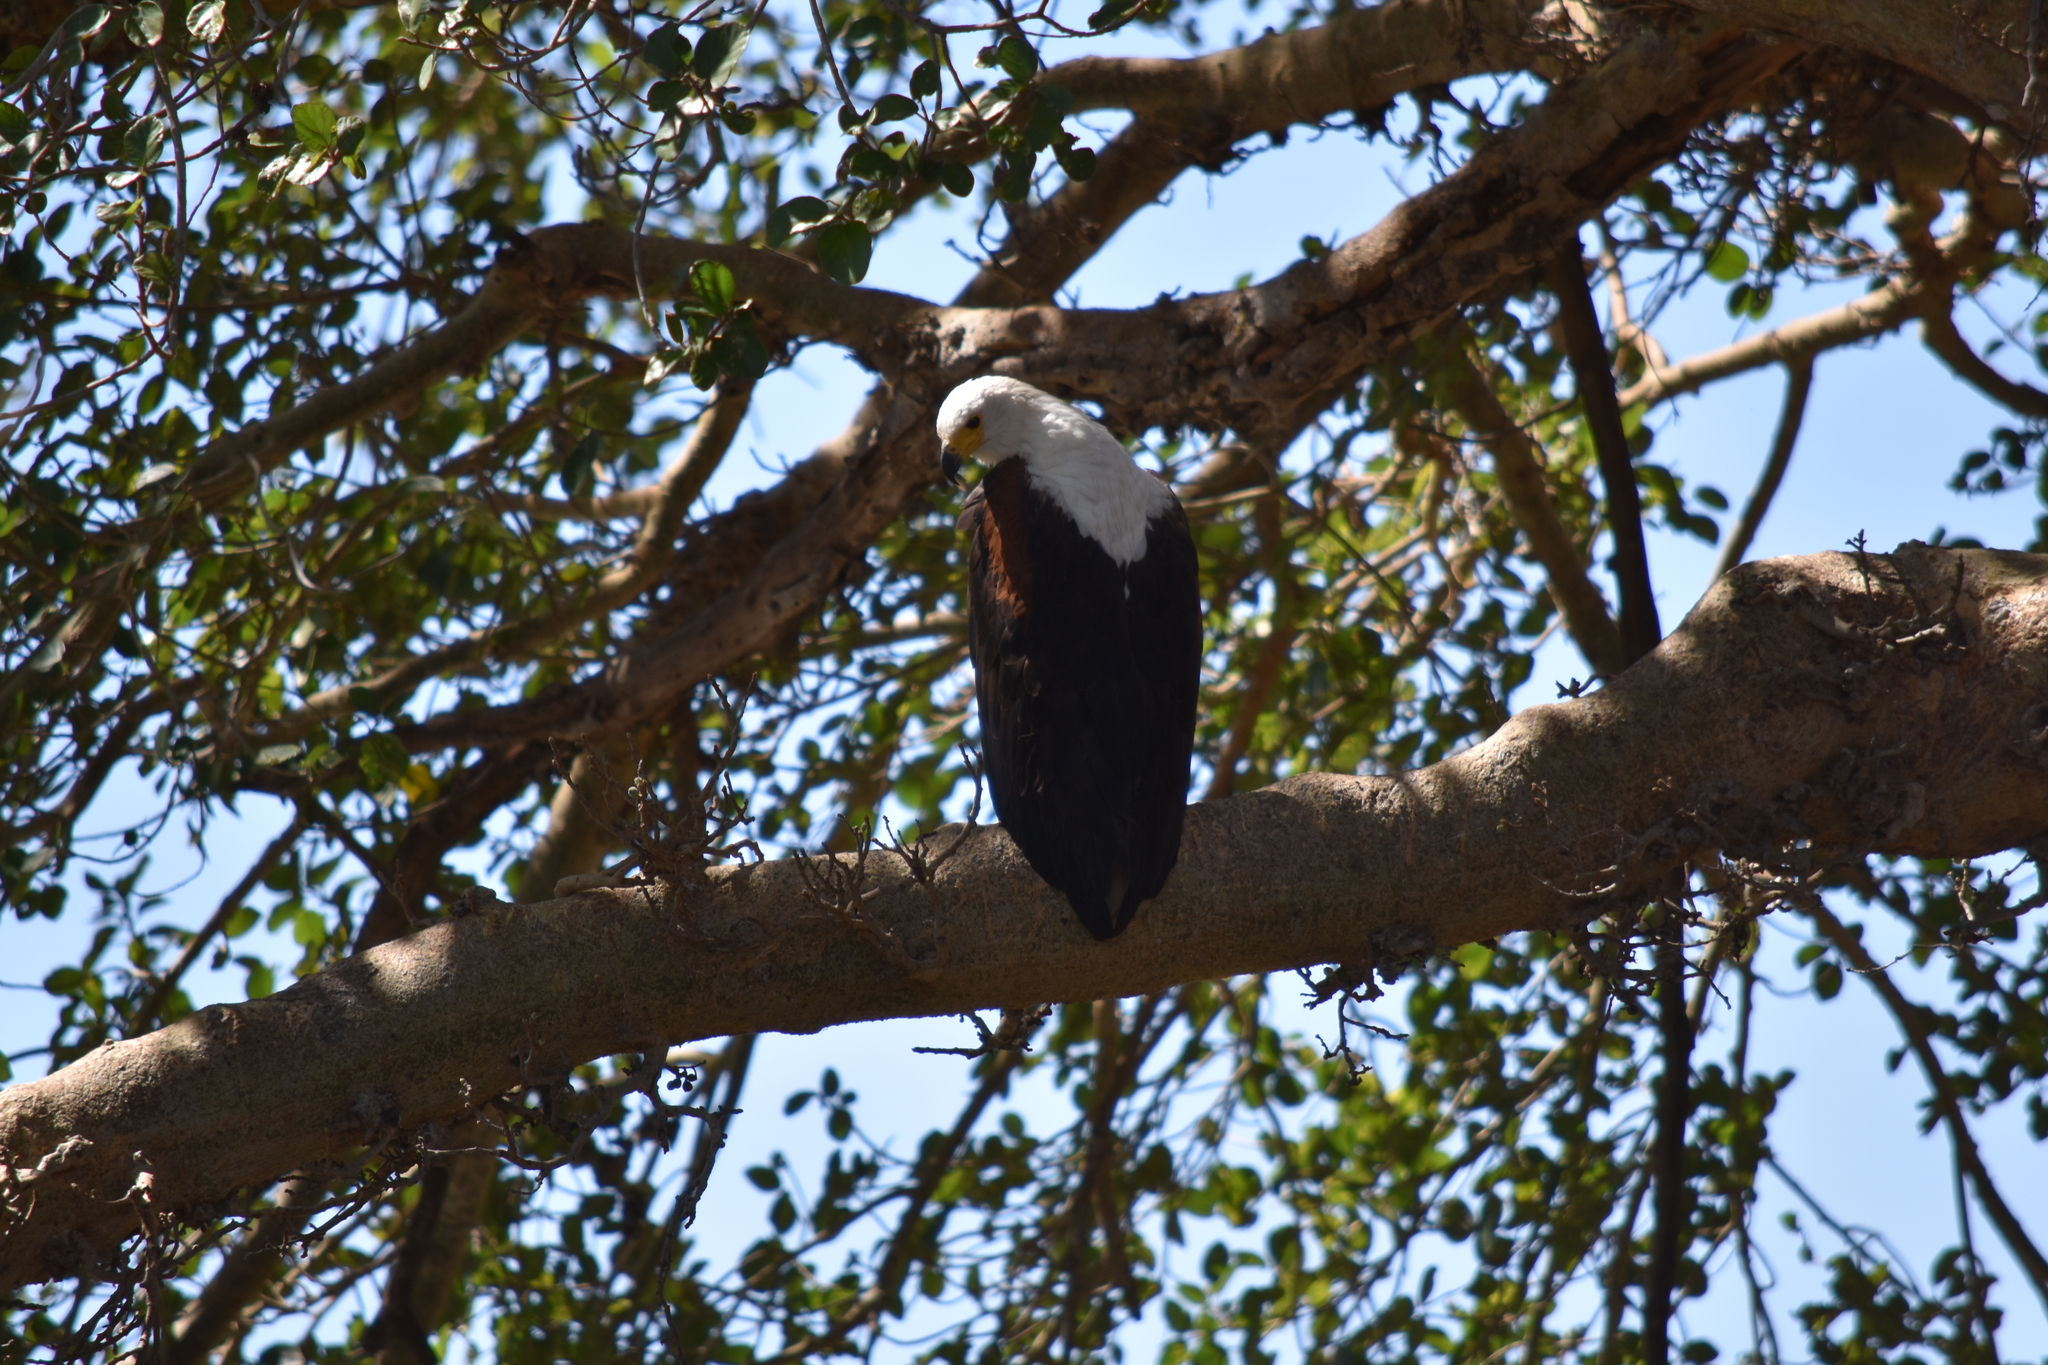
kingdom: Animalia
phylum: Chordata
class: Aves
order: Accipitriformes
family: Accipitridae
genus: Haliaeetus
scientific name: Haliaeetus vocifer
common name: African fish eagle
